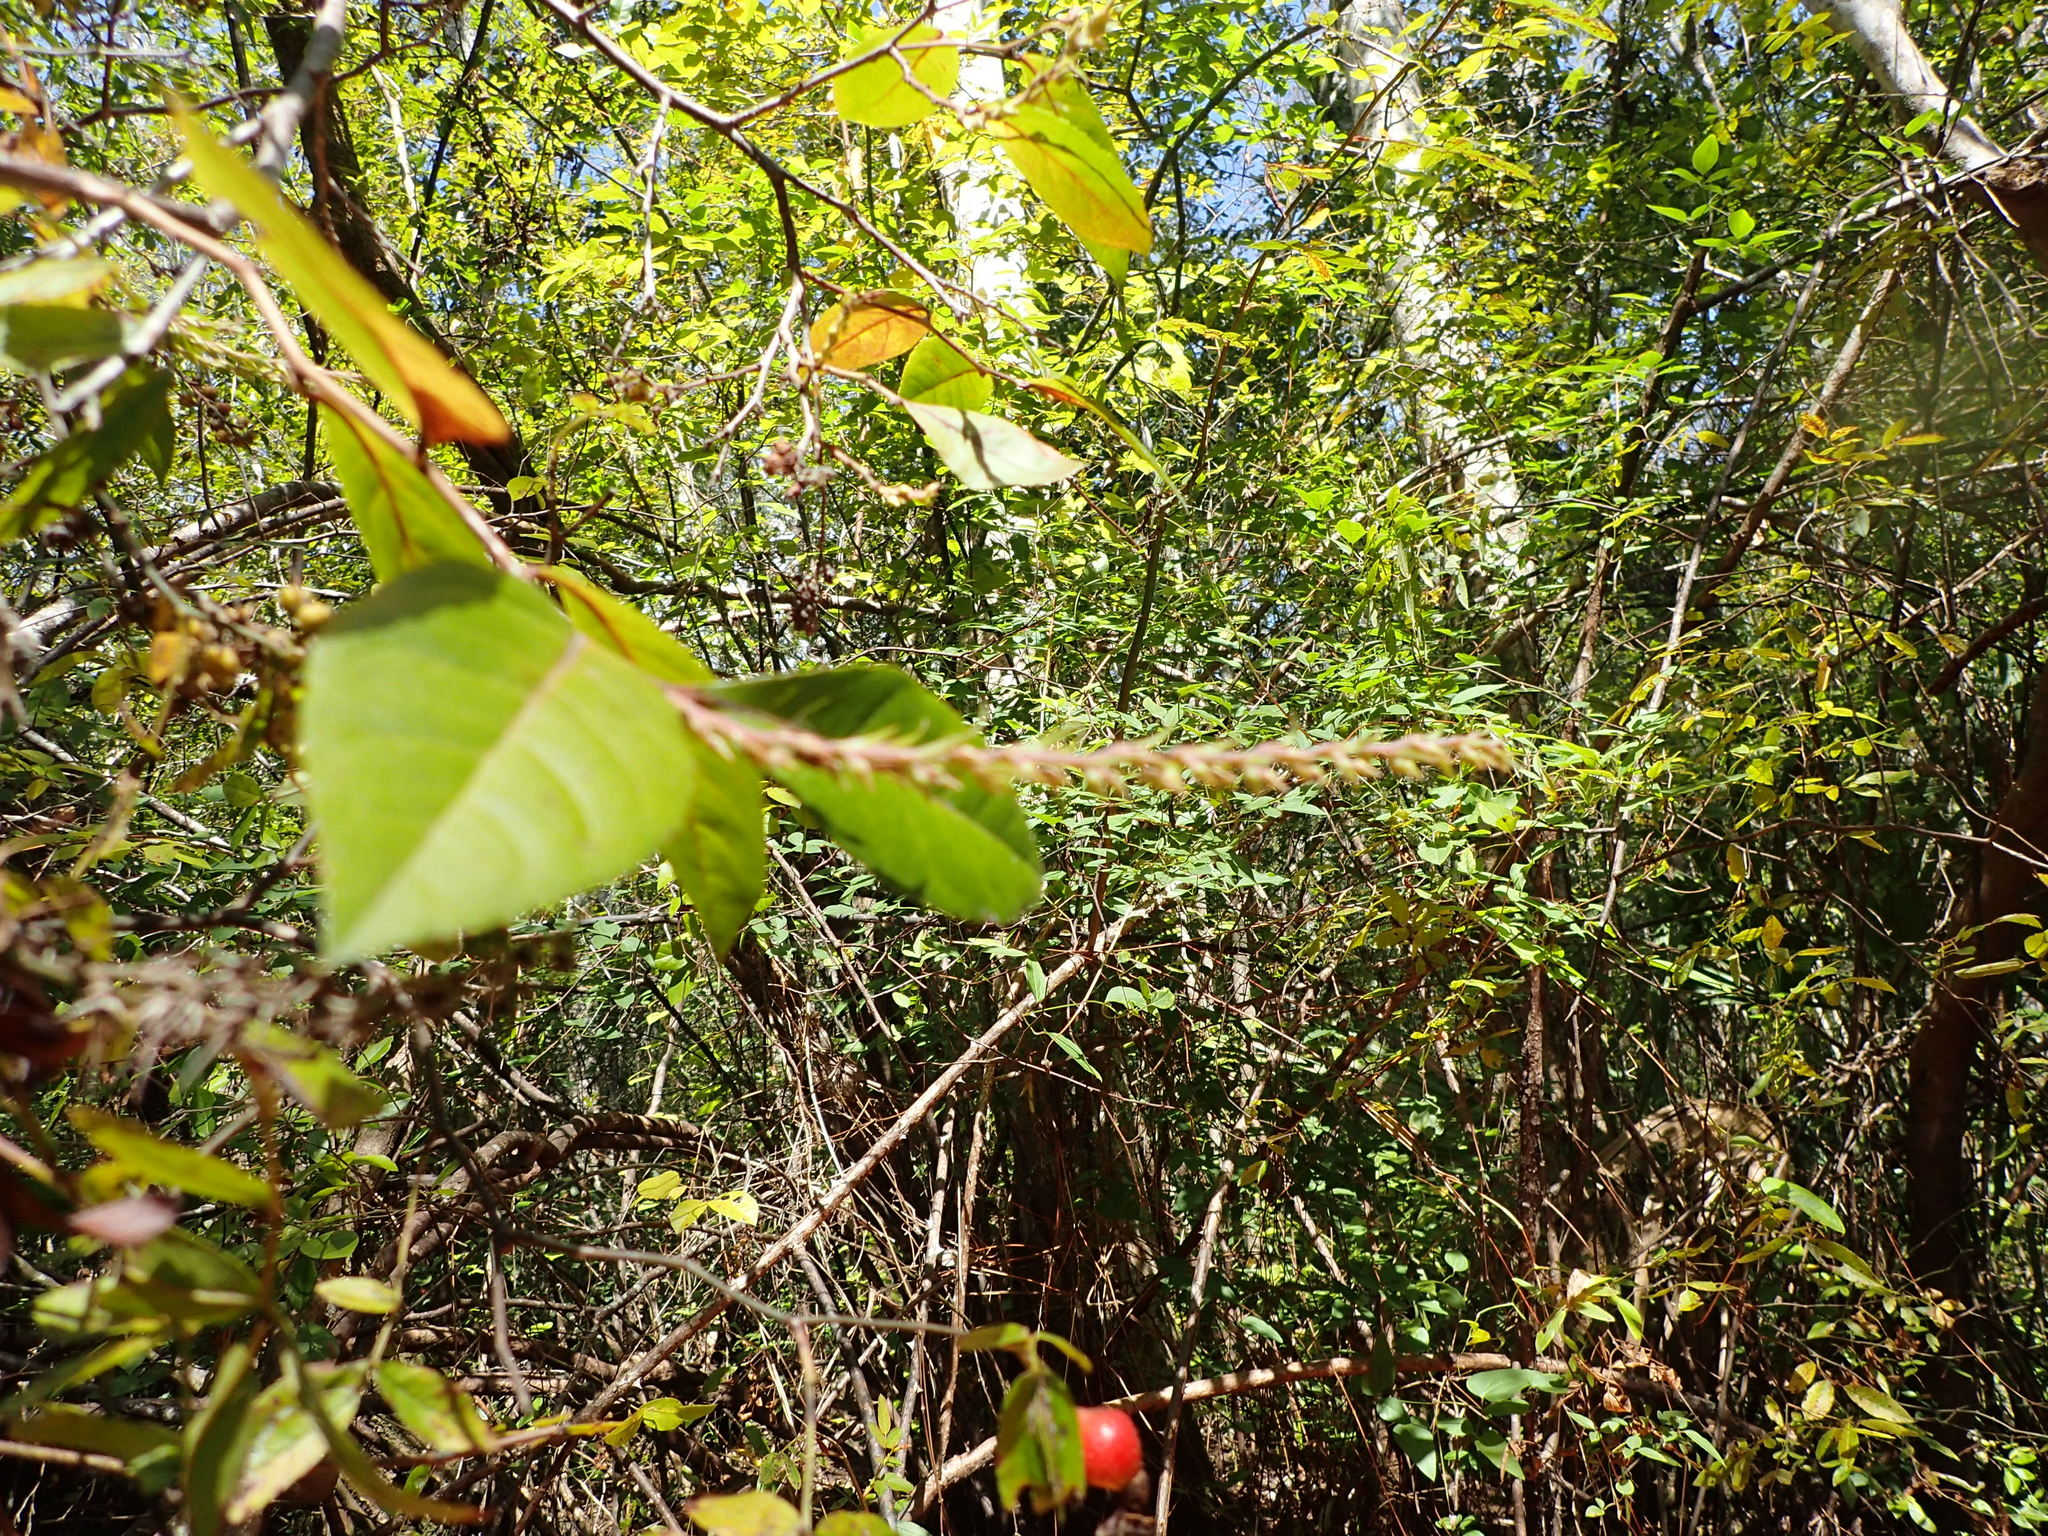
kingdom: Plantae
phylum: Tracheophyta
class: Magnoliopsida
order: Ericales
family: Ericaceae
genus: Eubotrys
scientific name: Eubotrys racemosa
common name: Fetterbush
